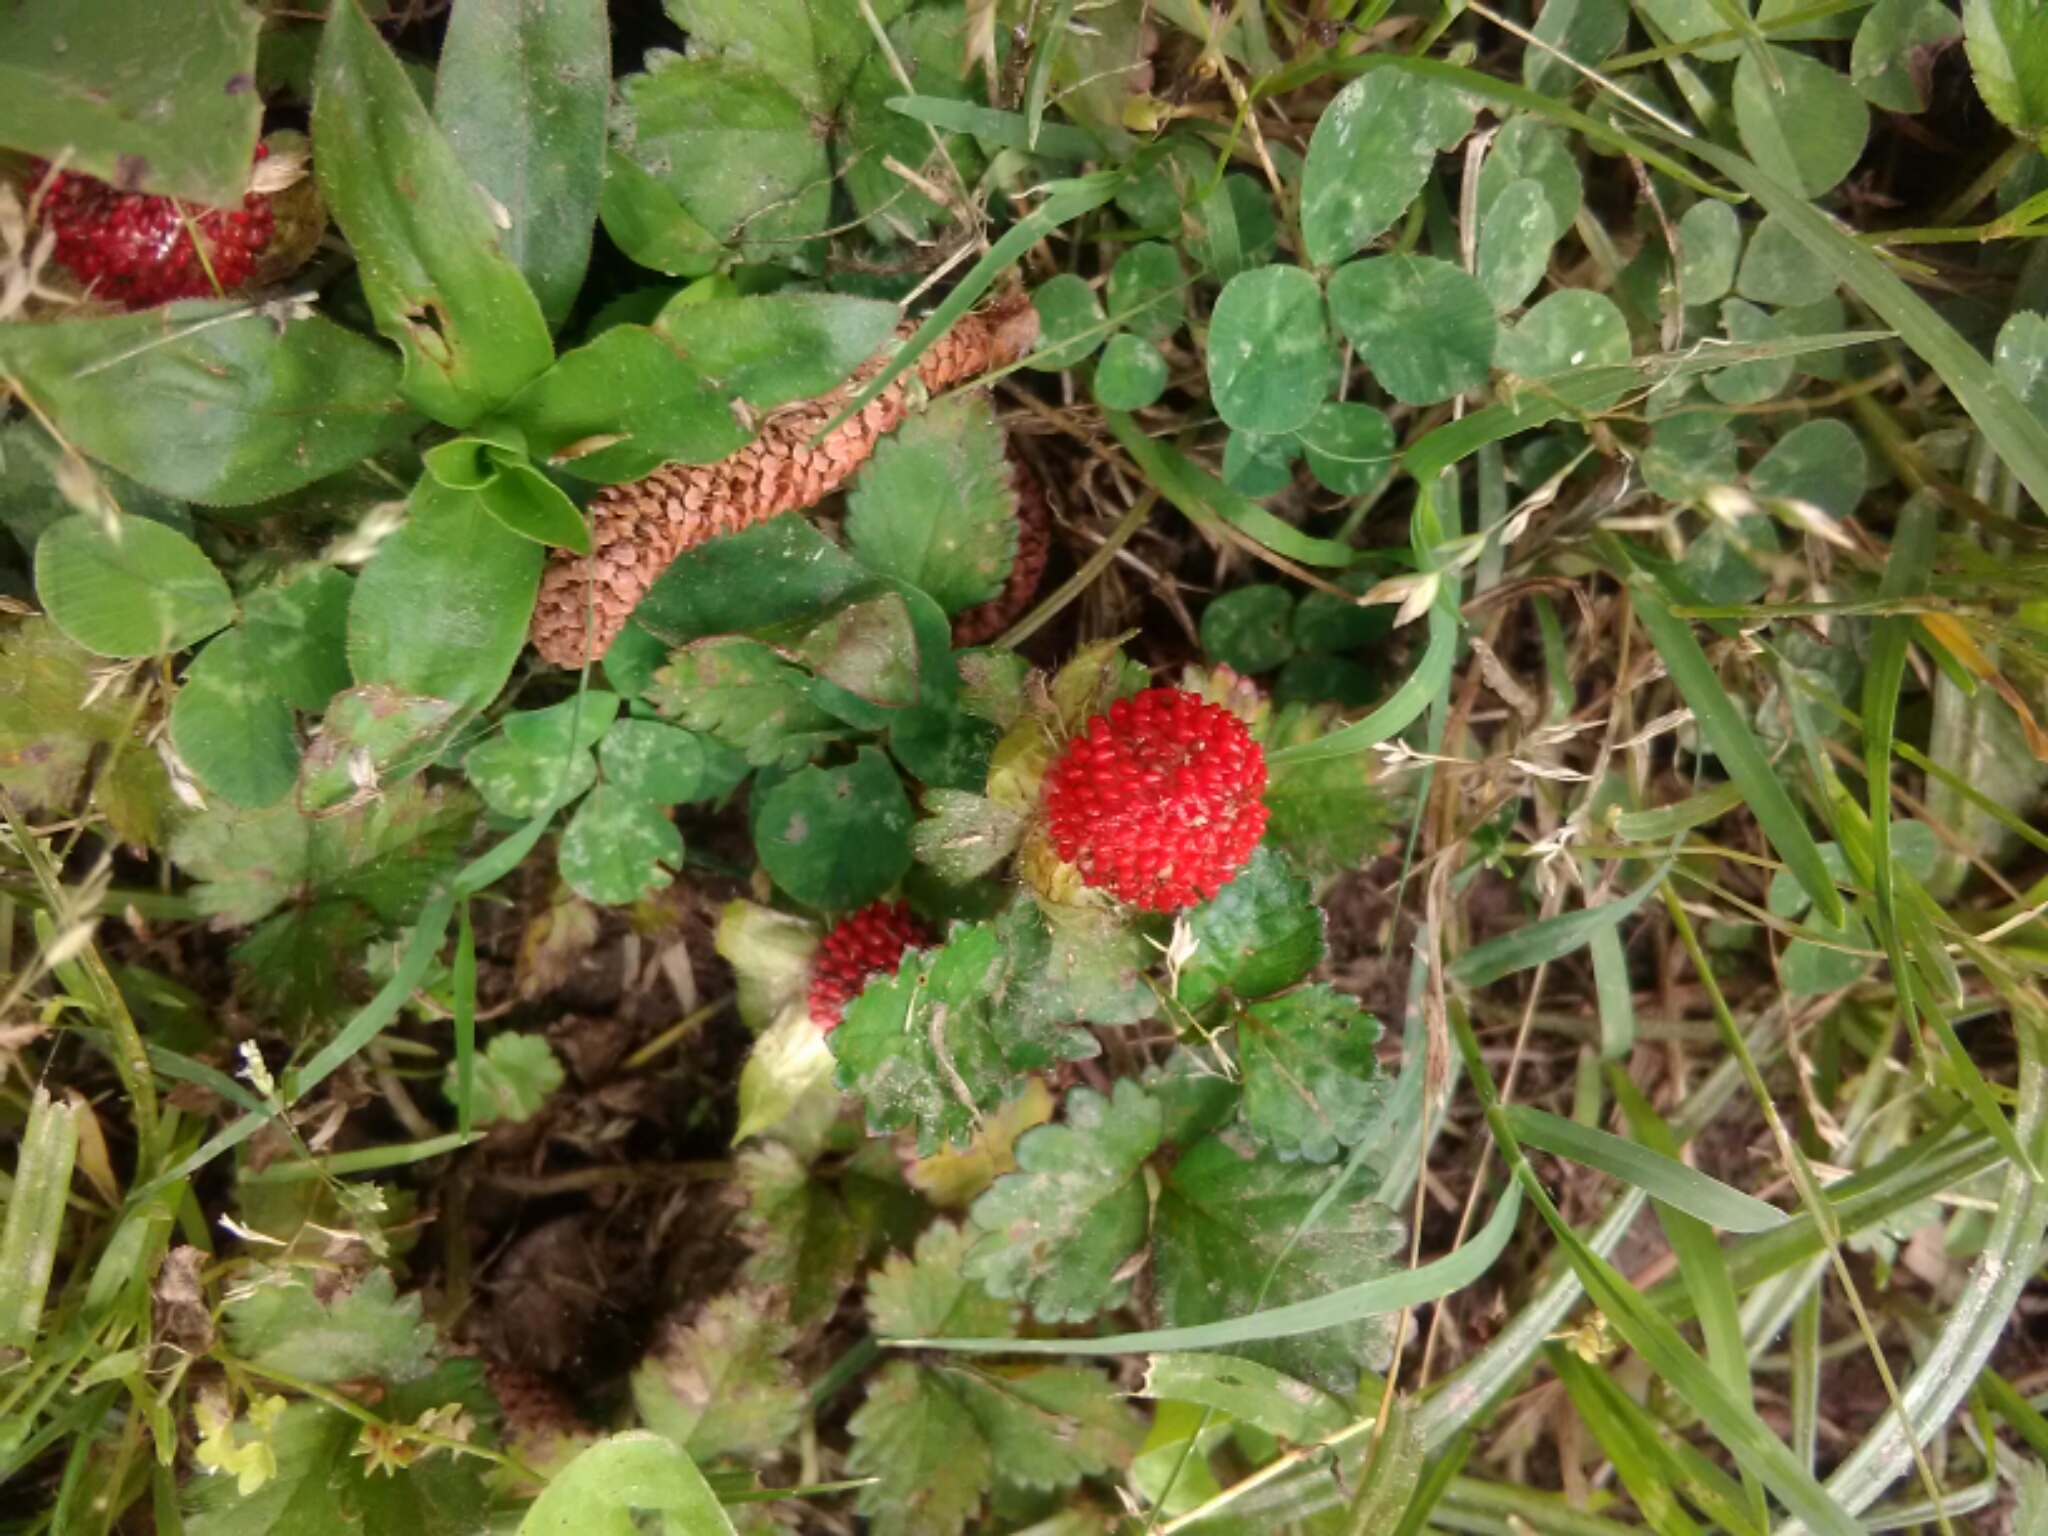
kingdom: Plantae
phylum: Tracheophyta
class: Magnoliopsida
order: Rosales
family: Rosaceae
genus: Potentilla
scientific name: Potentilla indica
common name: Yellow-flowered strawberry
